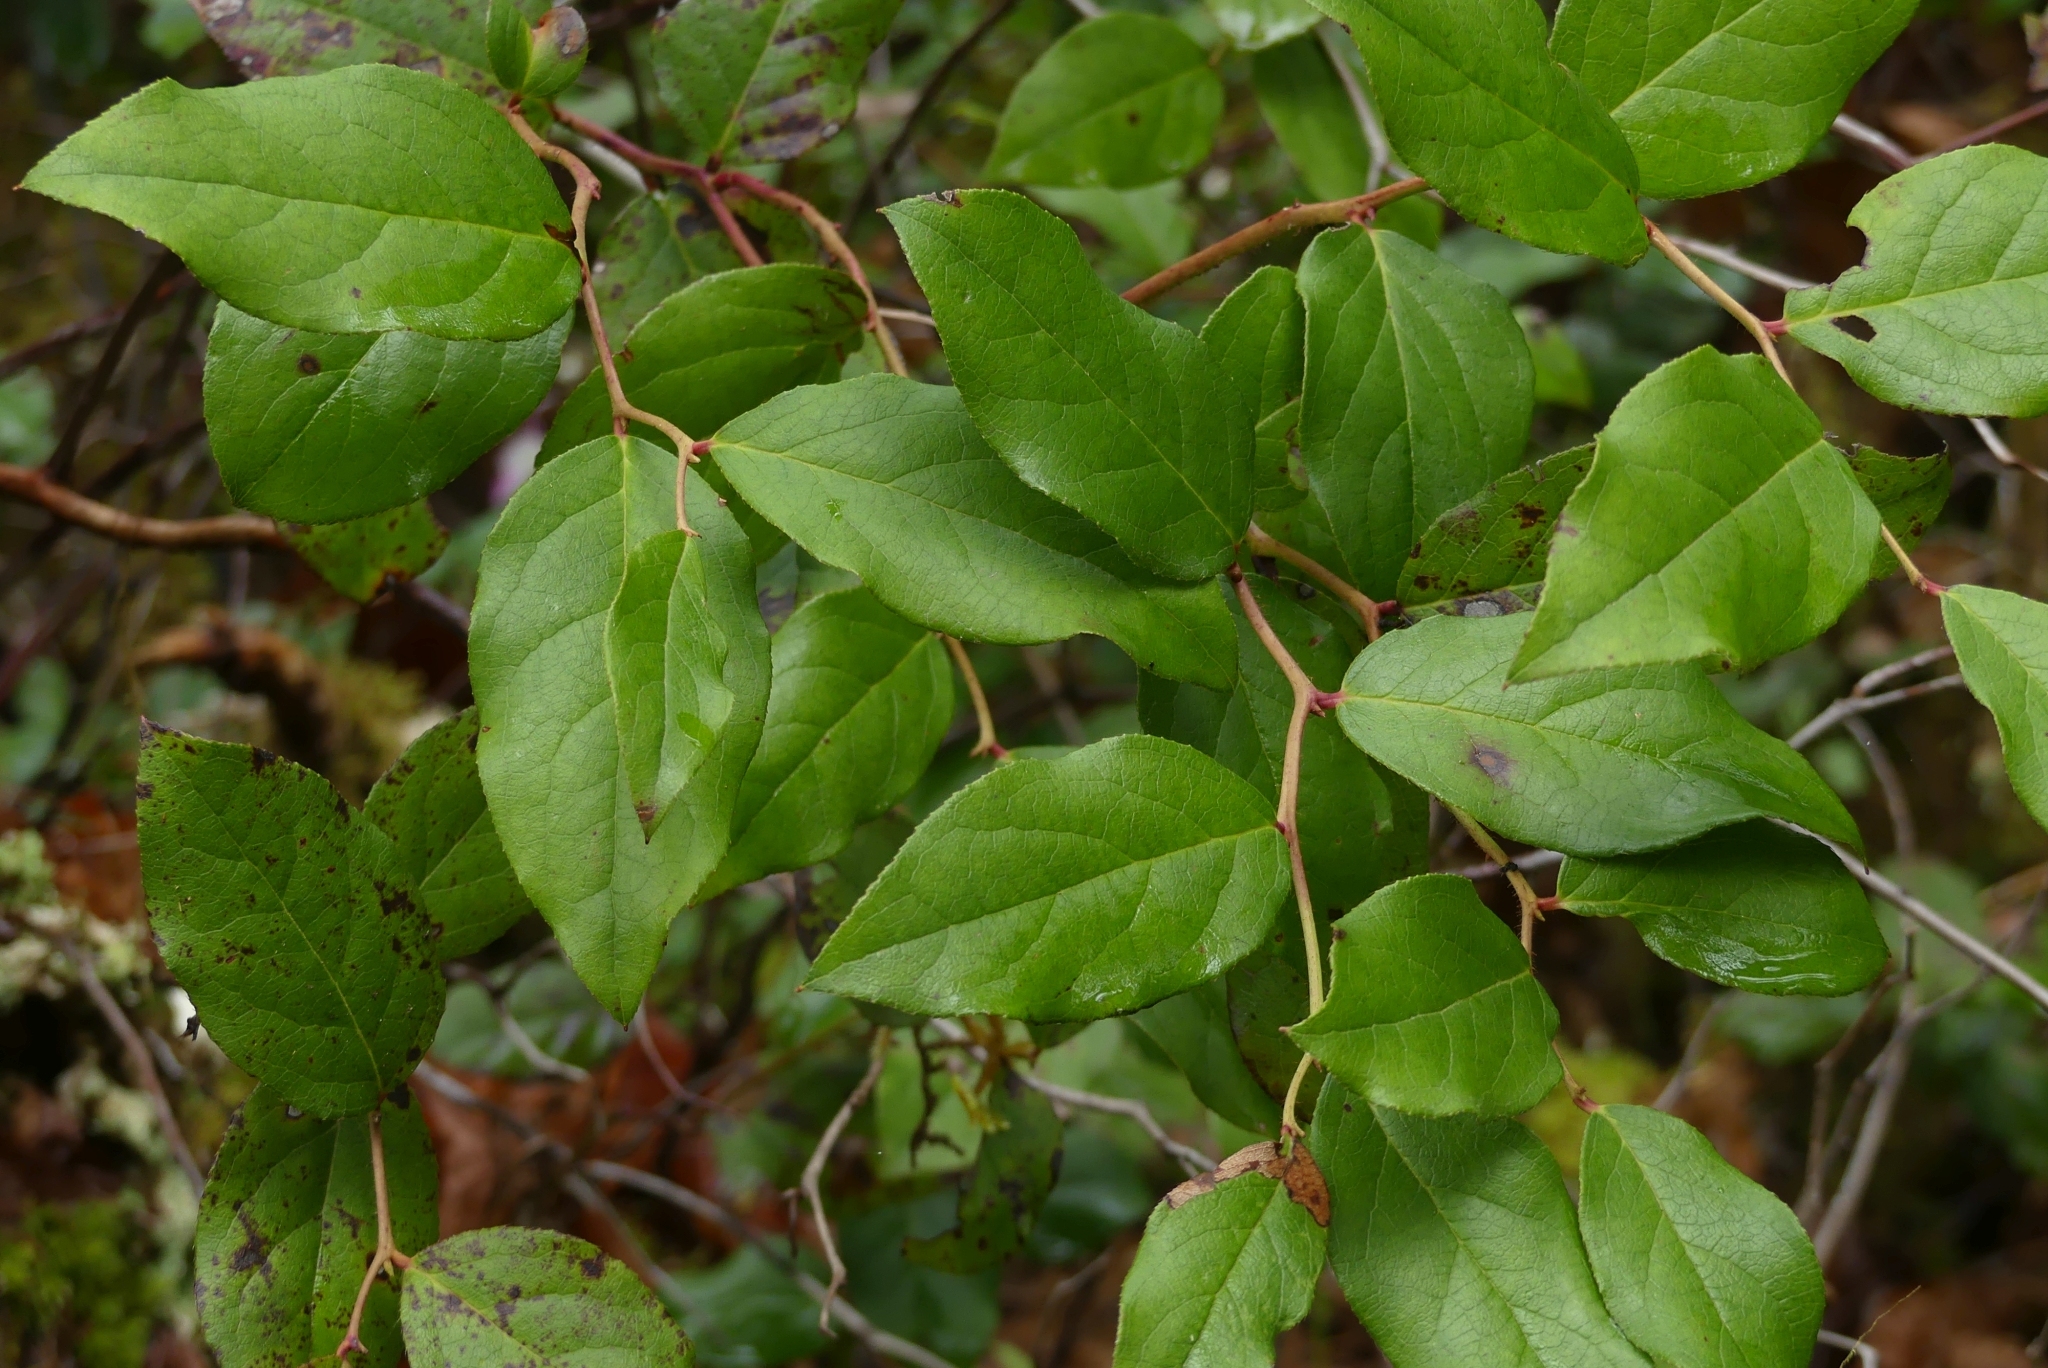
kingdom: Plantae
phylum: Tracheophyta
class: Magnoliopsida
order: Ericales
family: Ericaceae
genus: Gaultheria
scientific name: Gaultheria shallon
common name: Shallon
